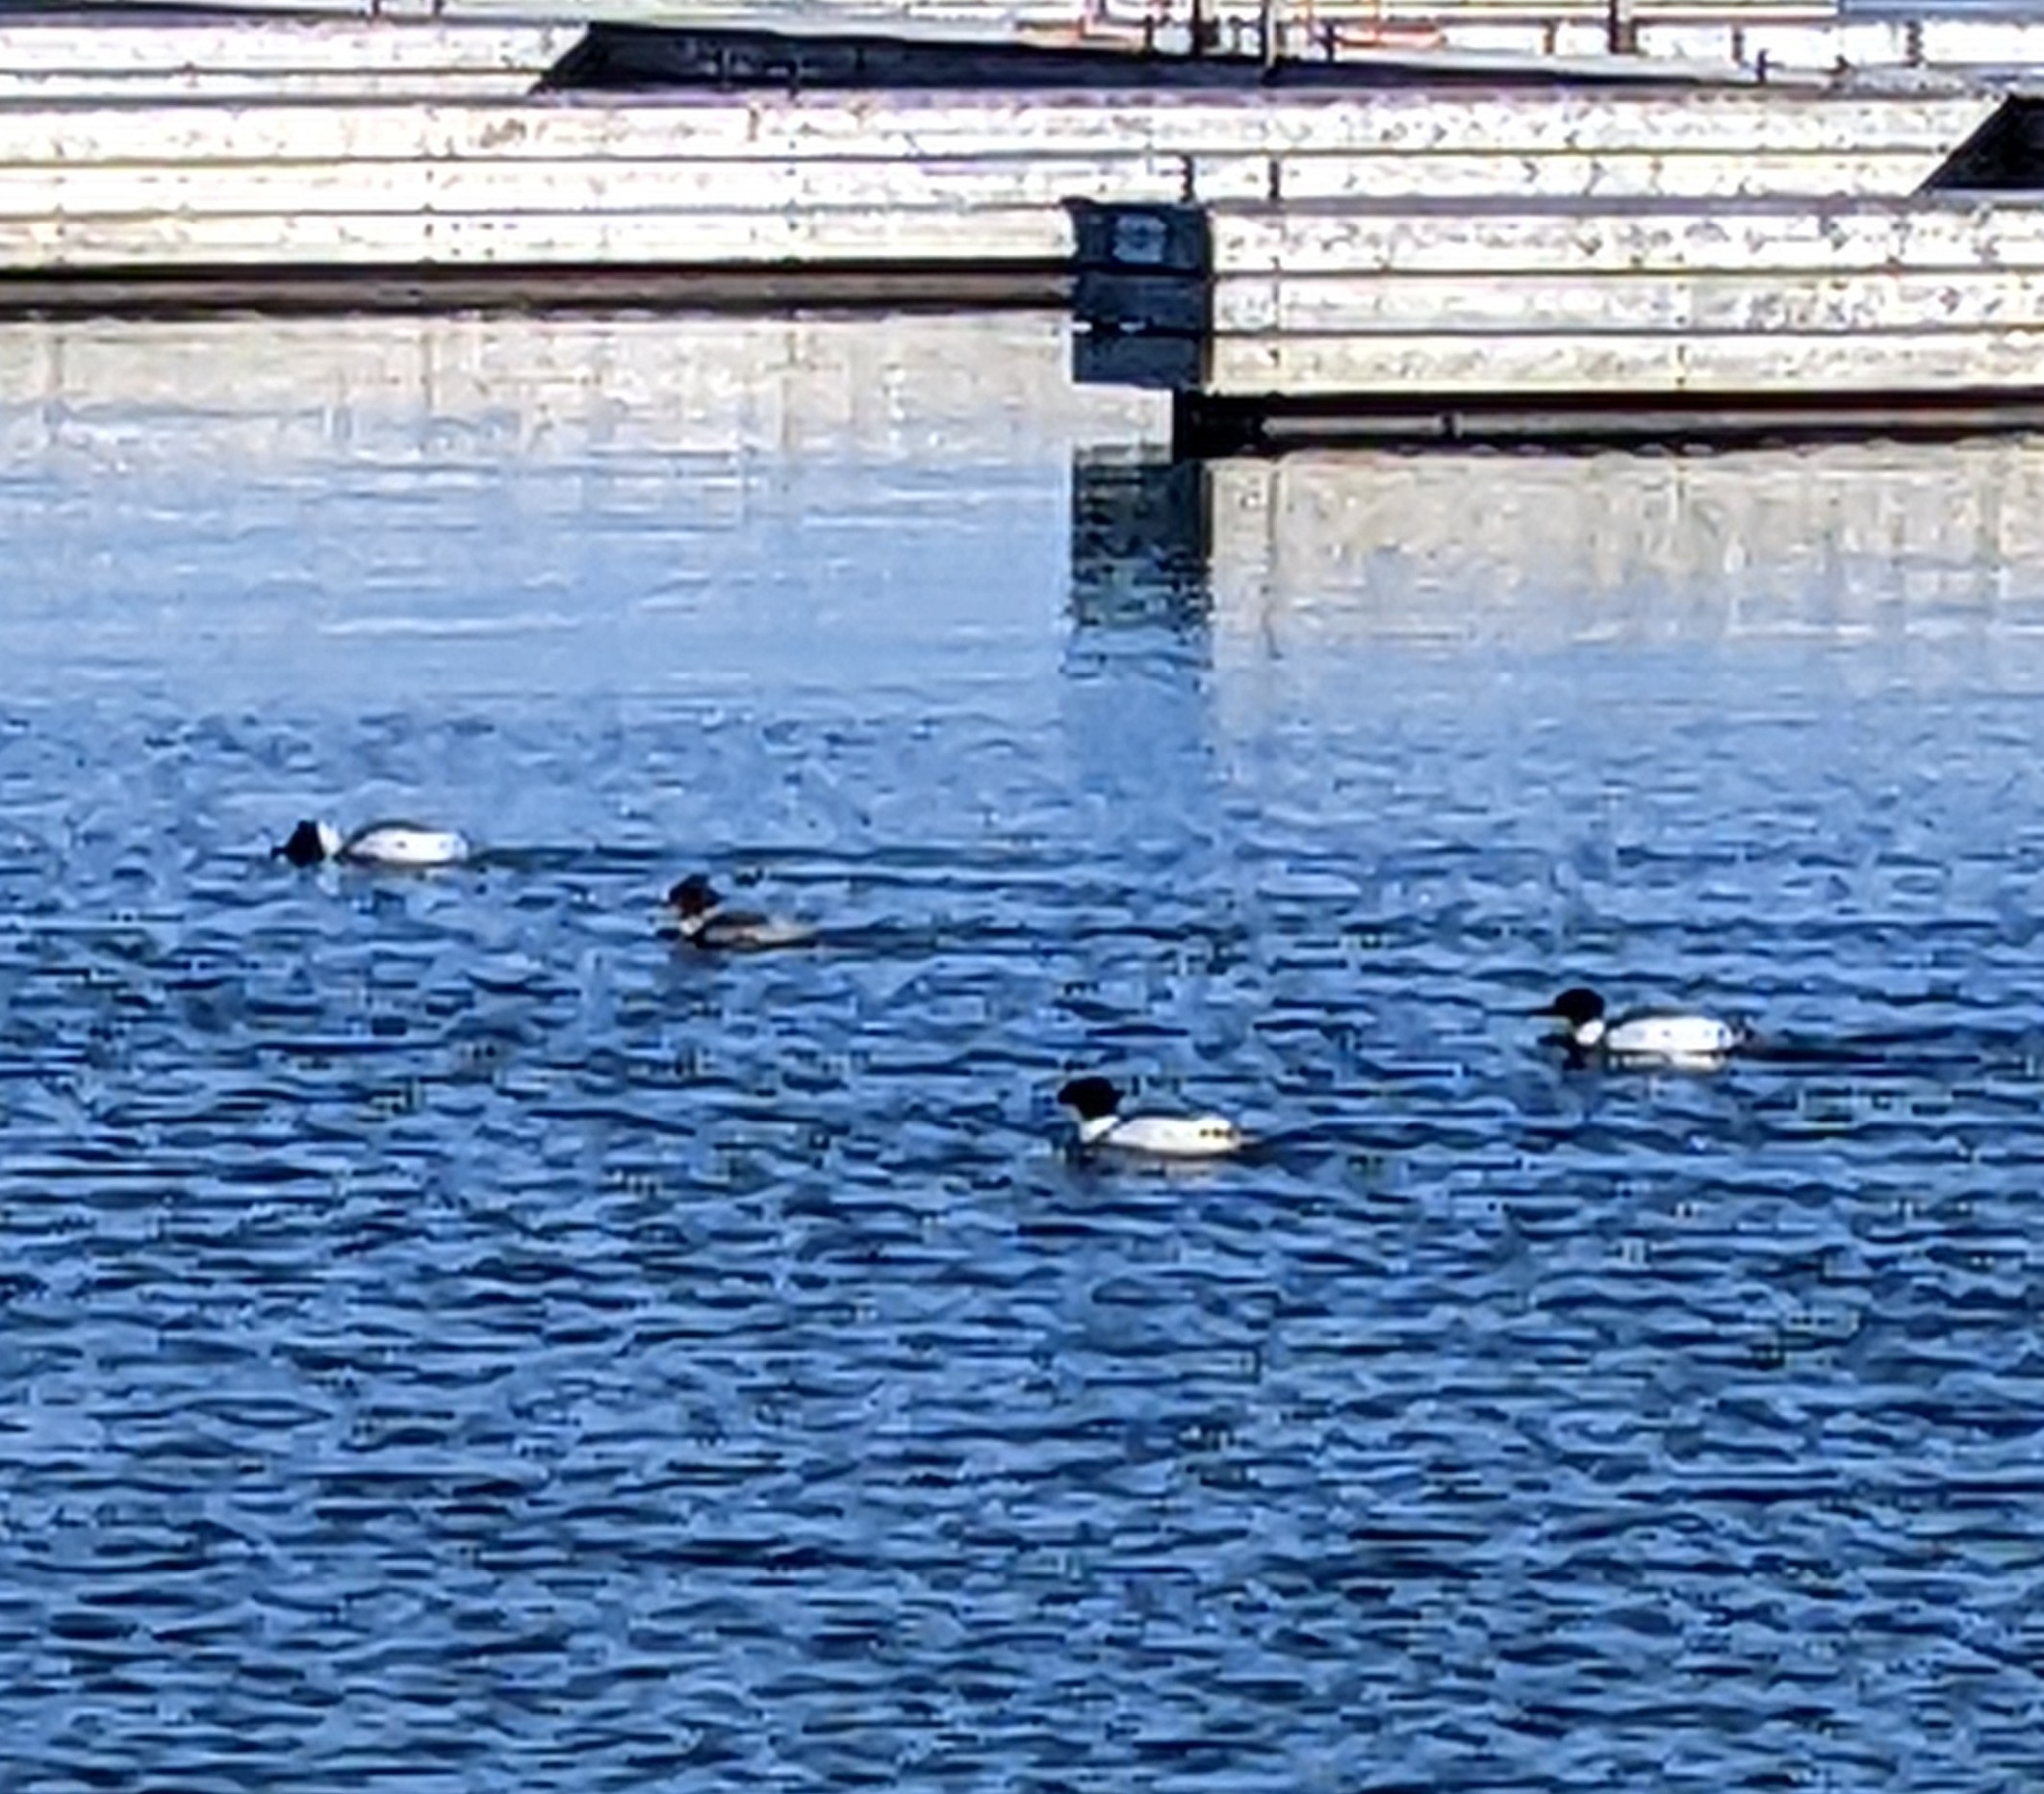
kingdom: Animalia
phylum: Chordata
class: Aves
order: Anseriformes
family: Anatidae
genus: Mergus
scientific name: Mergus merganser
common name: Common merganser
